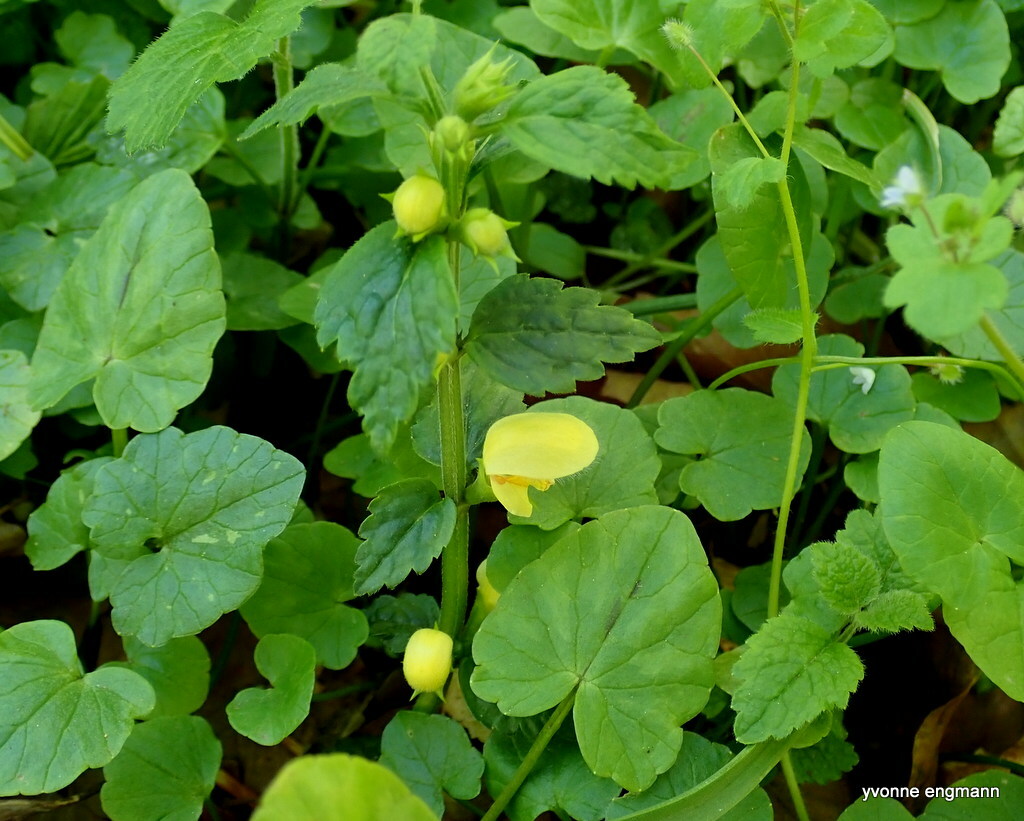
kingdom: Plantae
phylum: Tracheophyta
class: Magnoliopsida
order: Lamiales
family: Lamiaceae
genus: Lamium
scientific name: Lamium galeobdolon
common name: Yellow archangel
